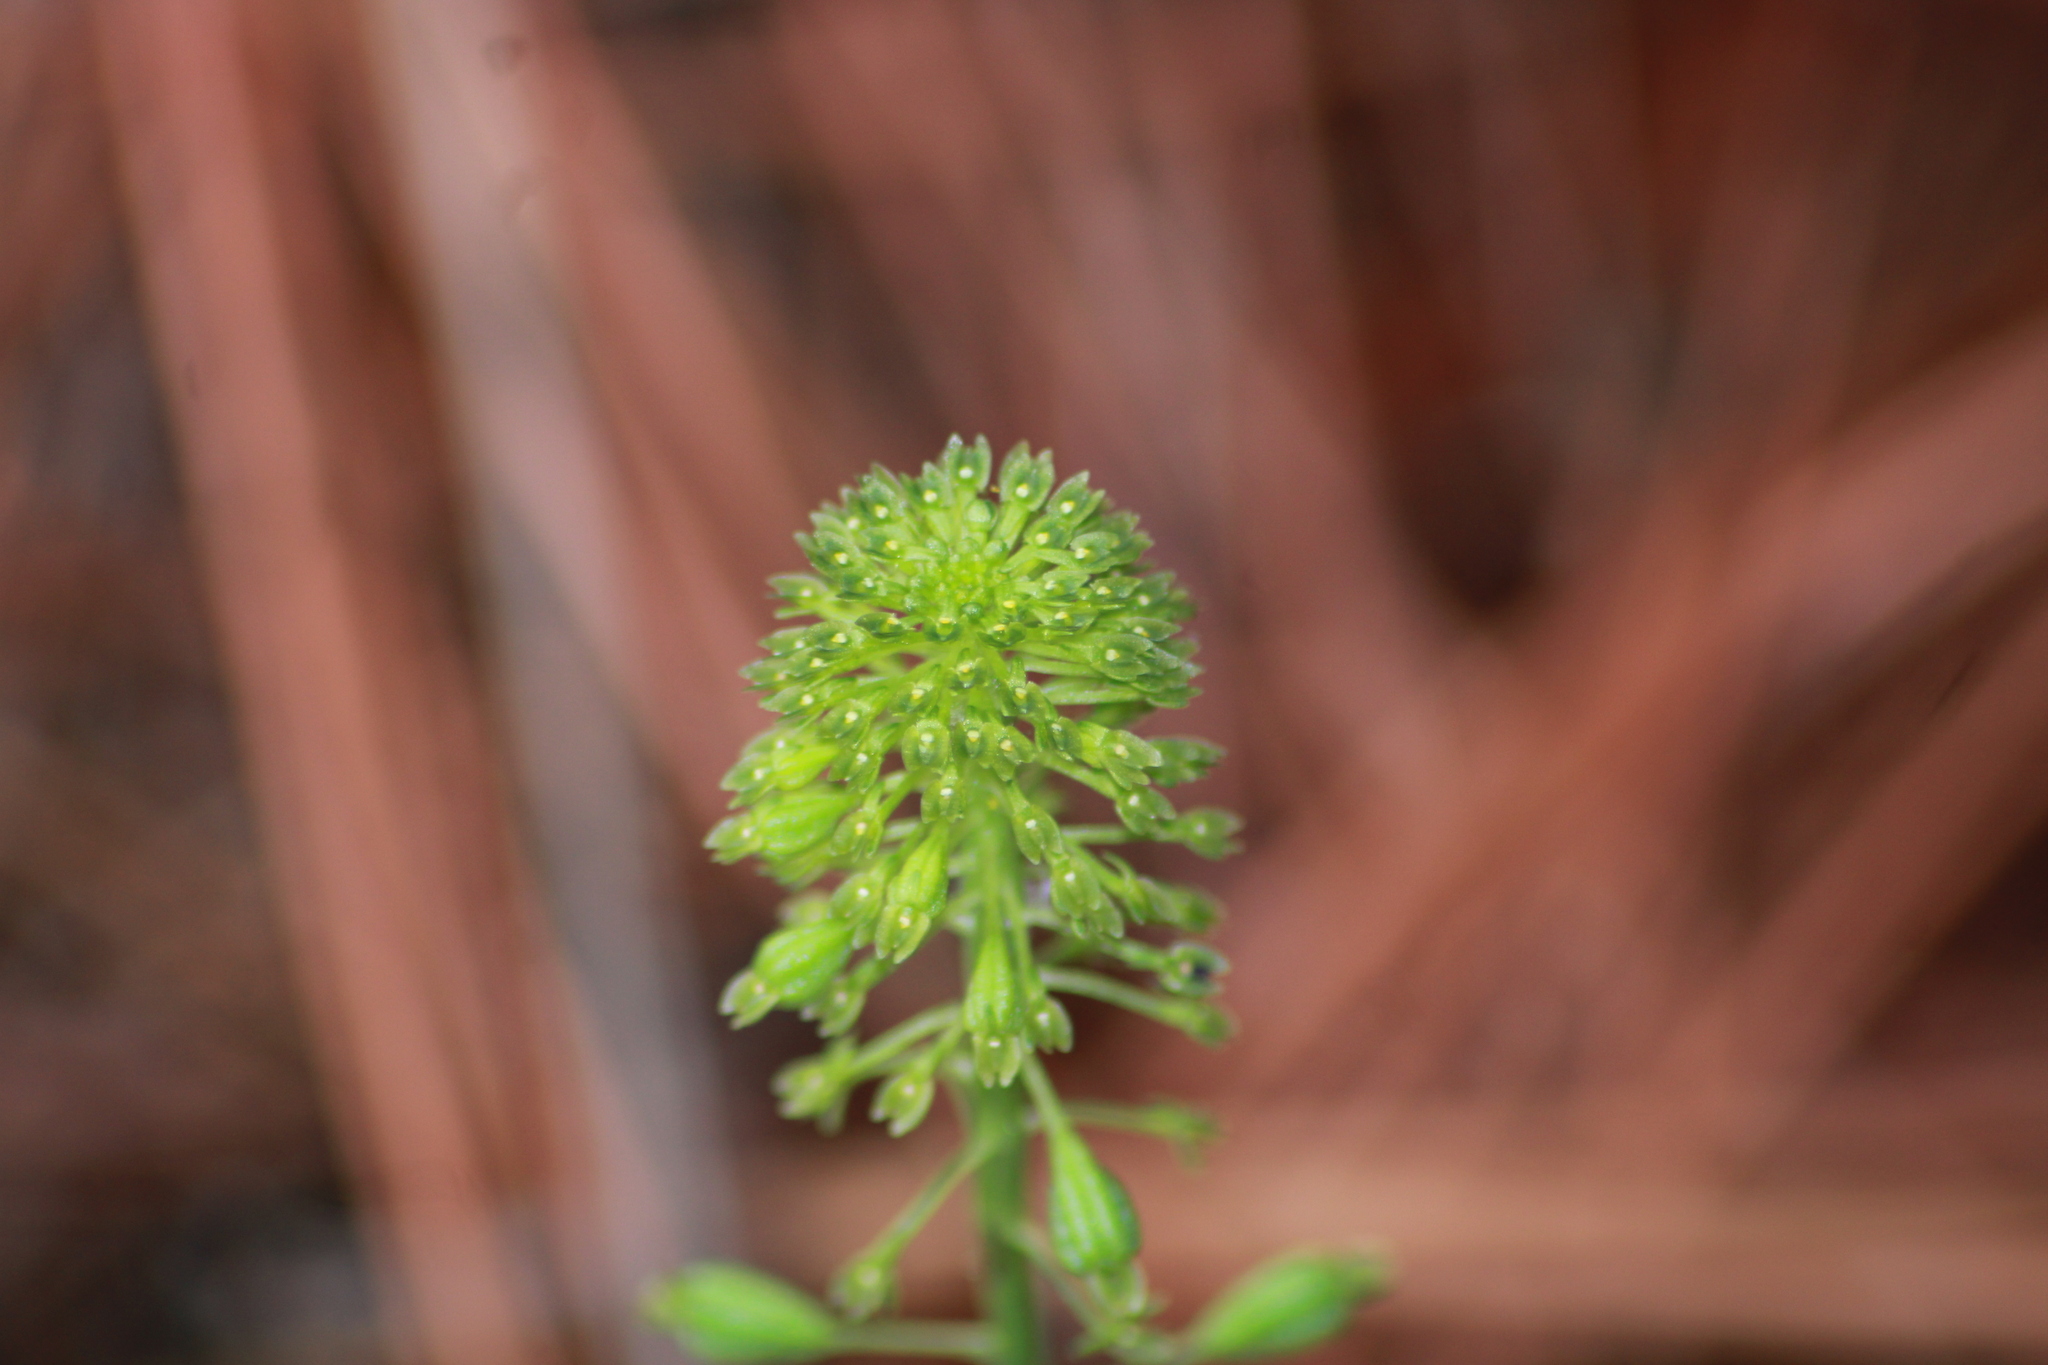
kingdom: Plantae
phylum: Tracheophyta
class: Liliopsida
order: Asparagales
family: Orchidaceae
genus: Malaxis
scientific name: Malaxis unifolia
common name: Green adder's-mouth
